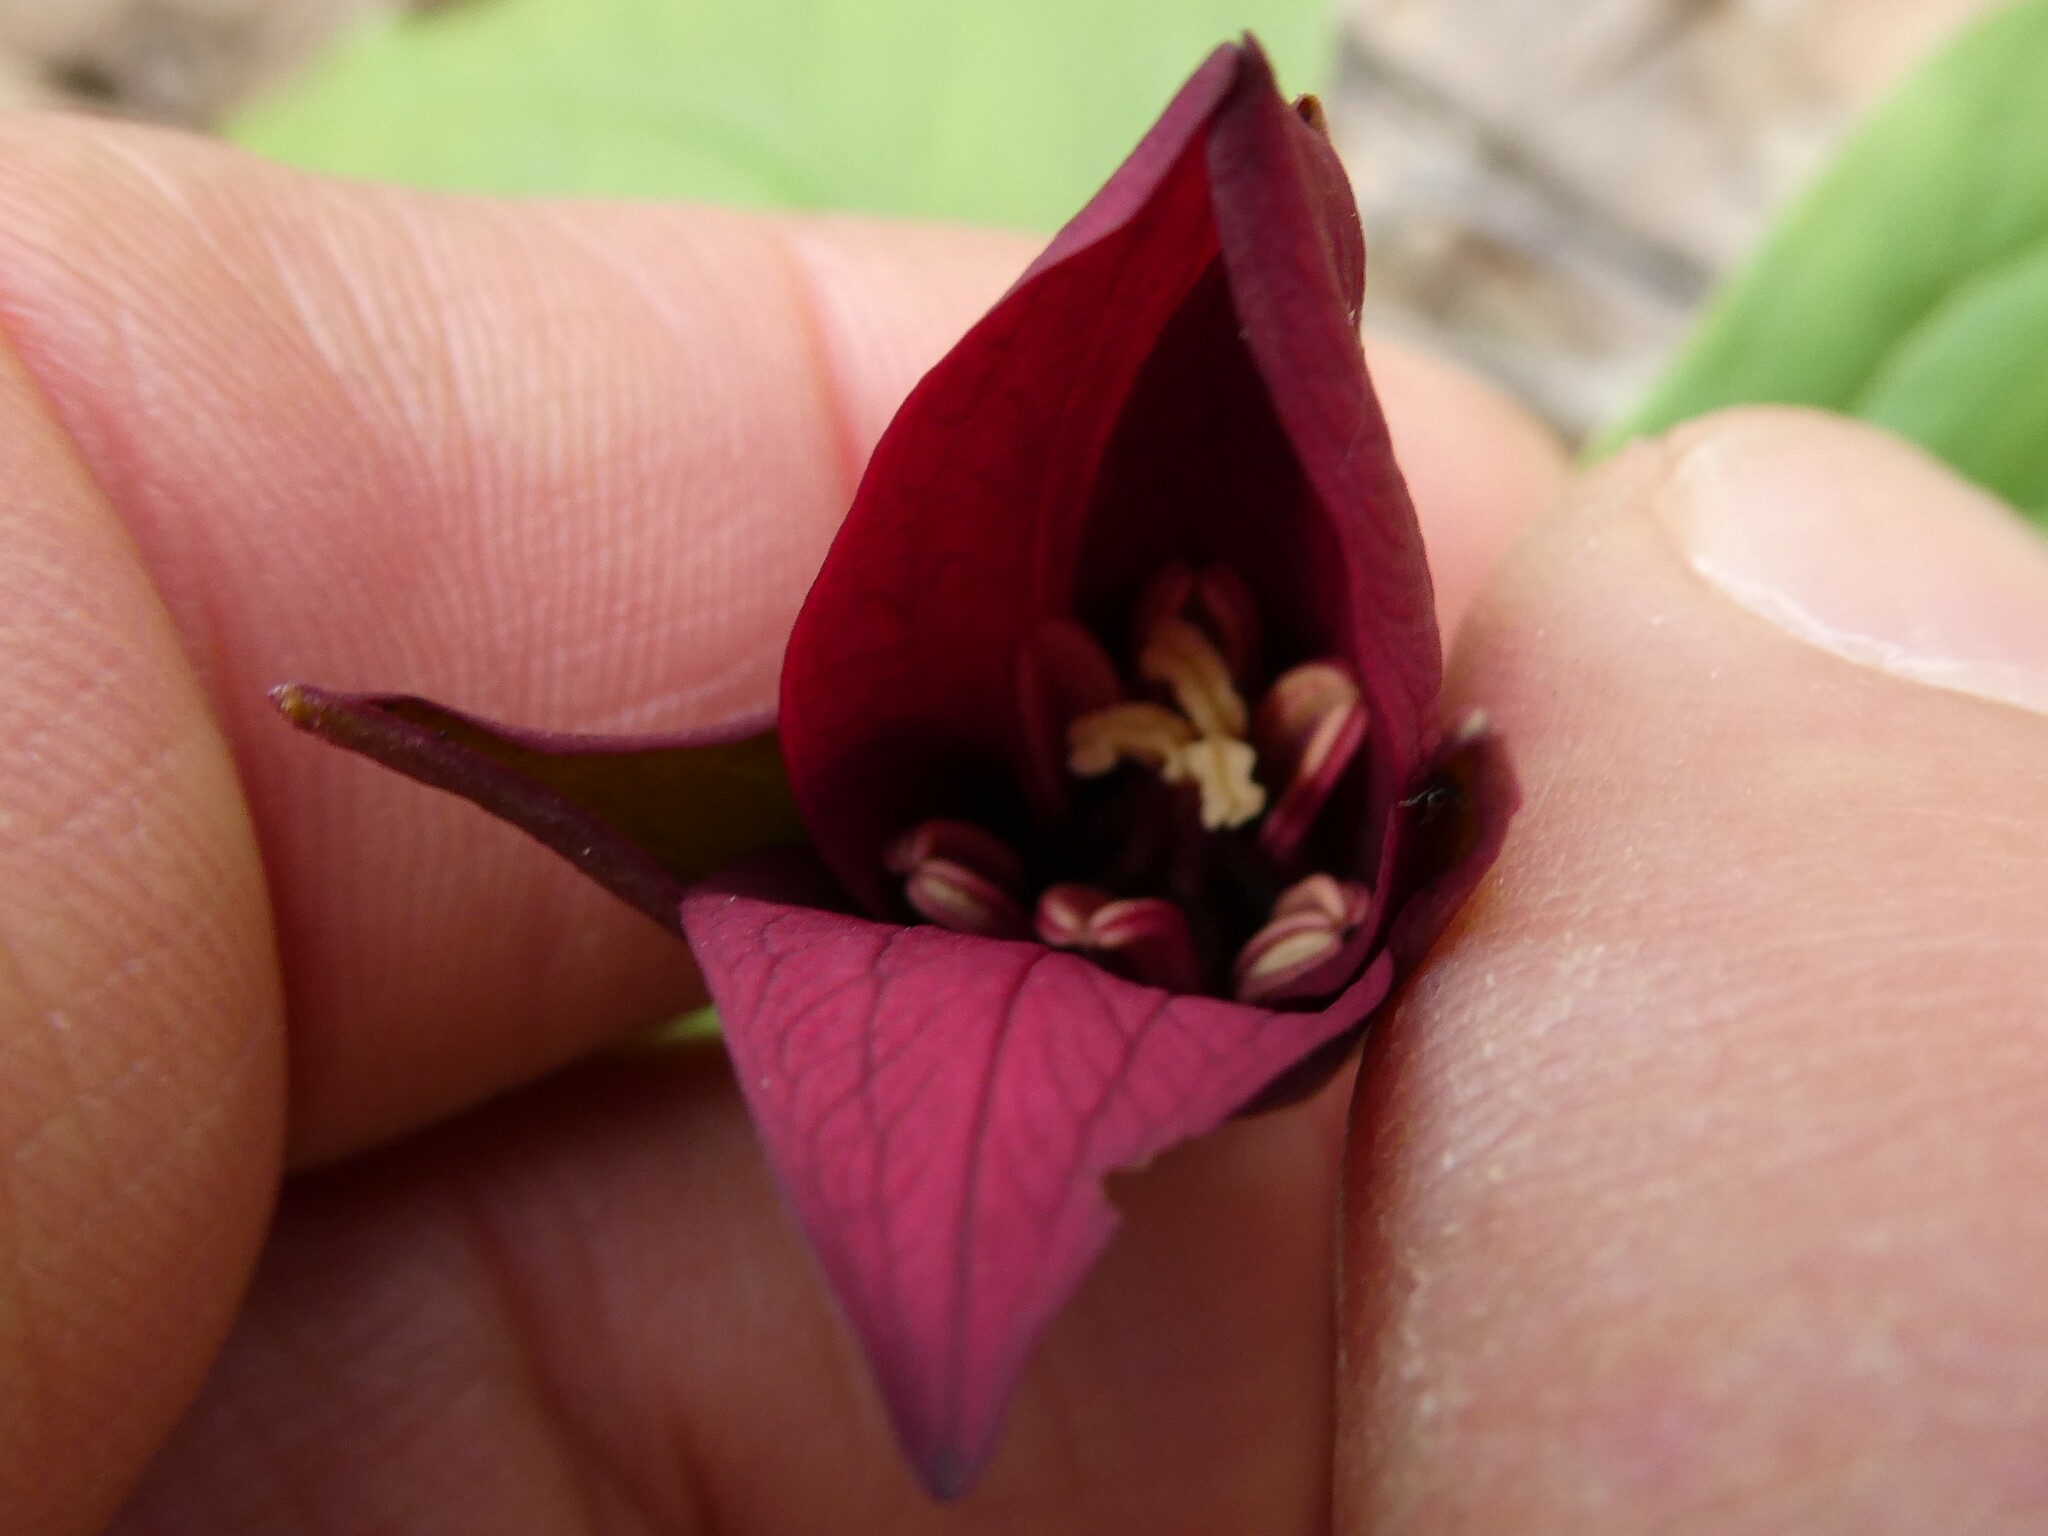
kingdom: Plantae
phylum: Tracheophyta
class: Liliopsida
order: Liliales
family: Melanthiaceae
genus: Trillium
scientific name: Trillium erectum
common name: Purple trillium
